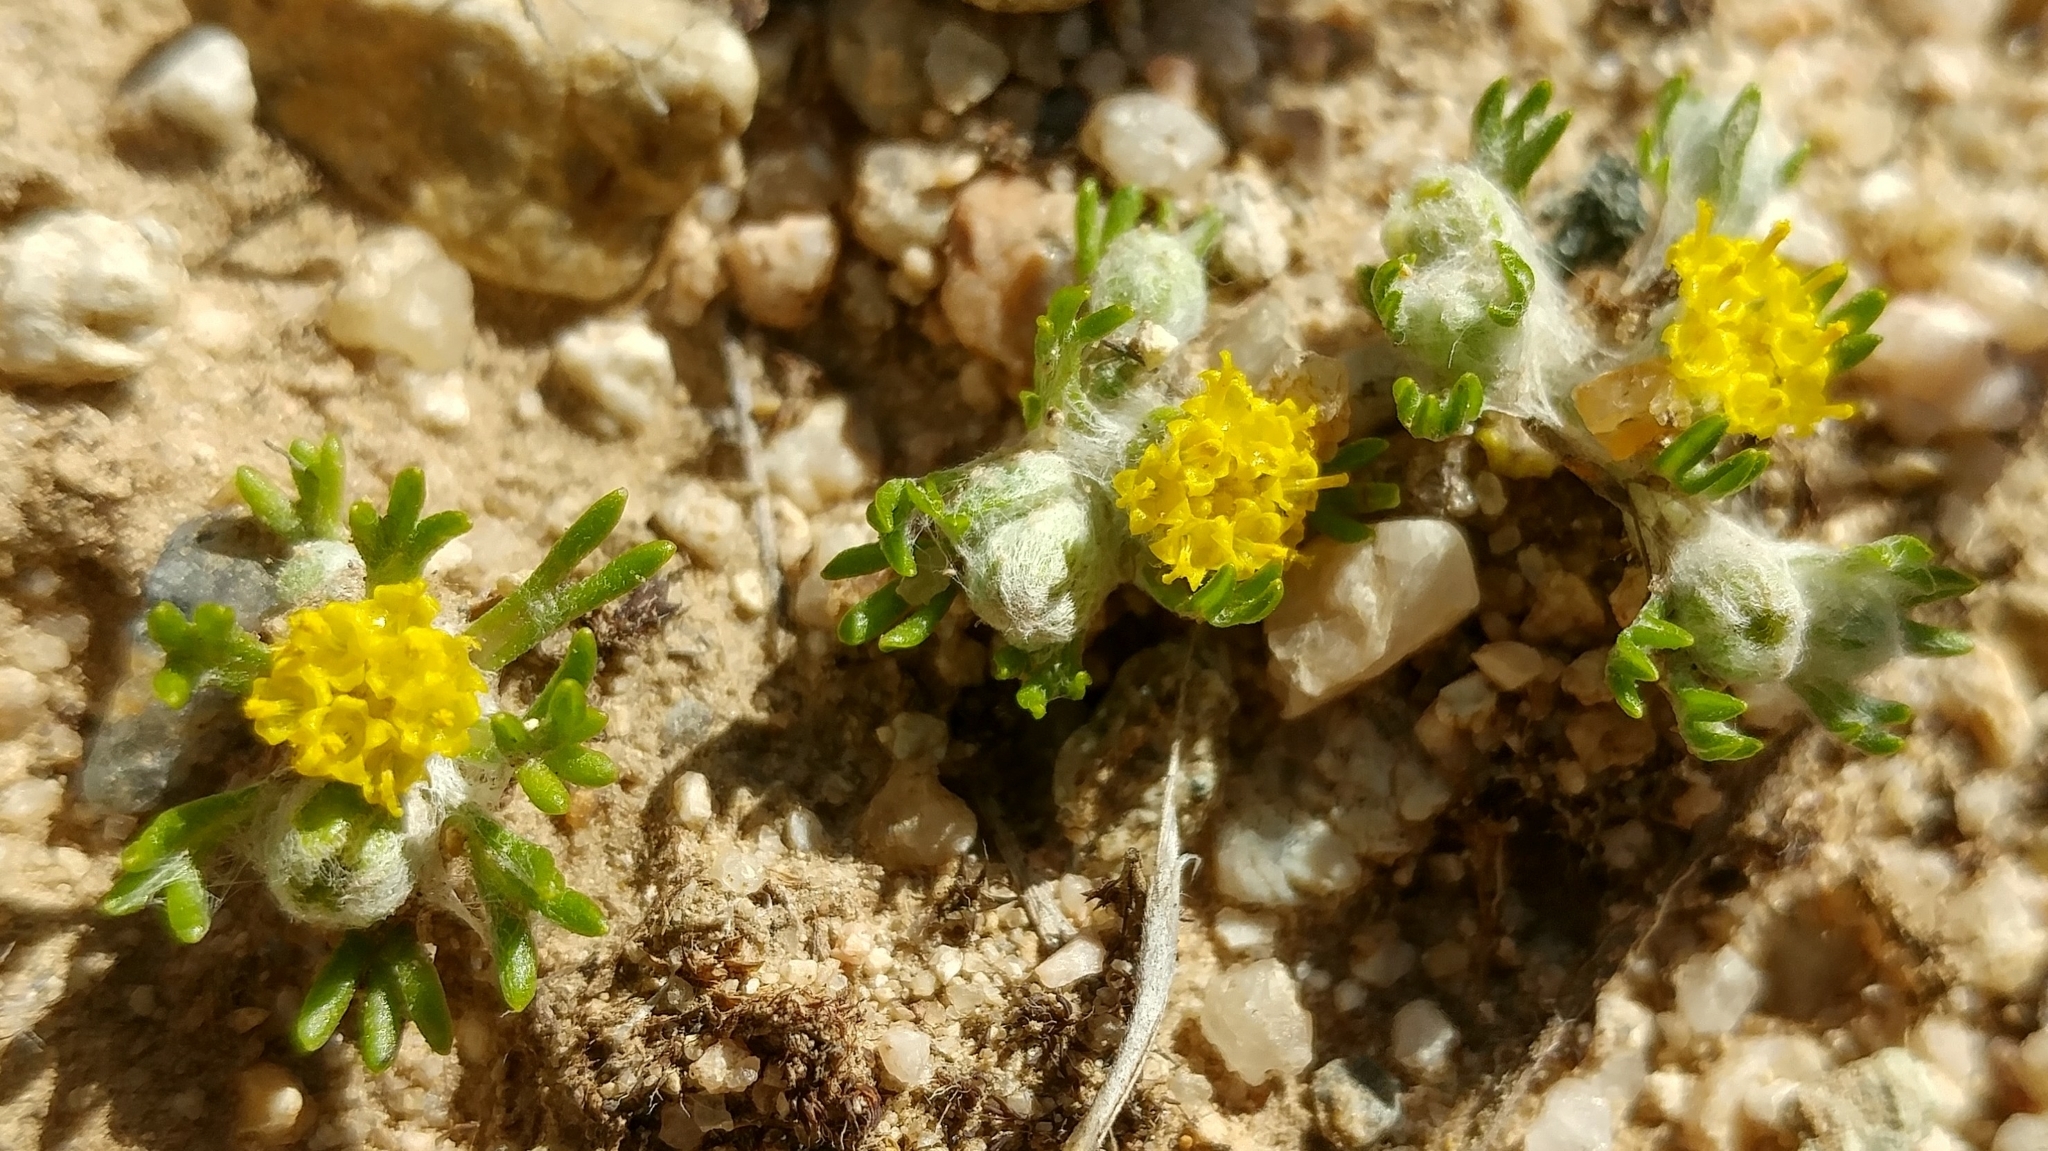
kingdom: Plantae
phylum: Tracheophyta
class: Magnoliopsida
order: Asterales
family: Asteraceae
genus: Eriophyllum
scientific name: Eriophyllum pringlei
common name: Pringle's woolly-sunflower
